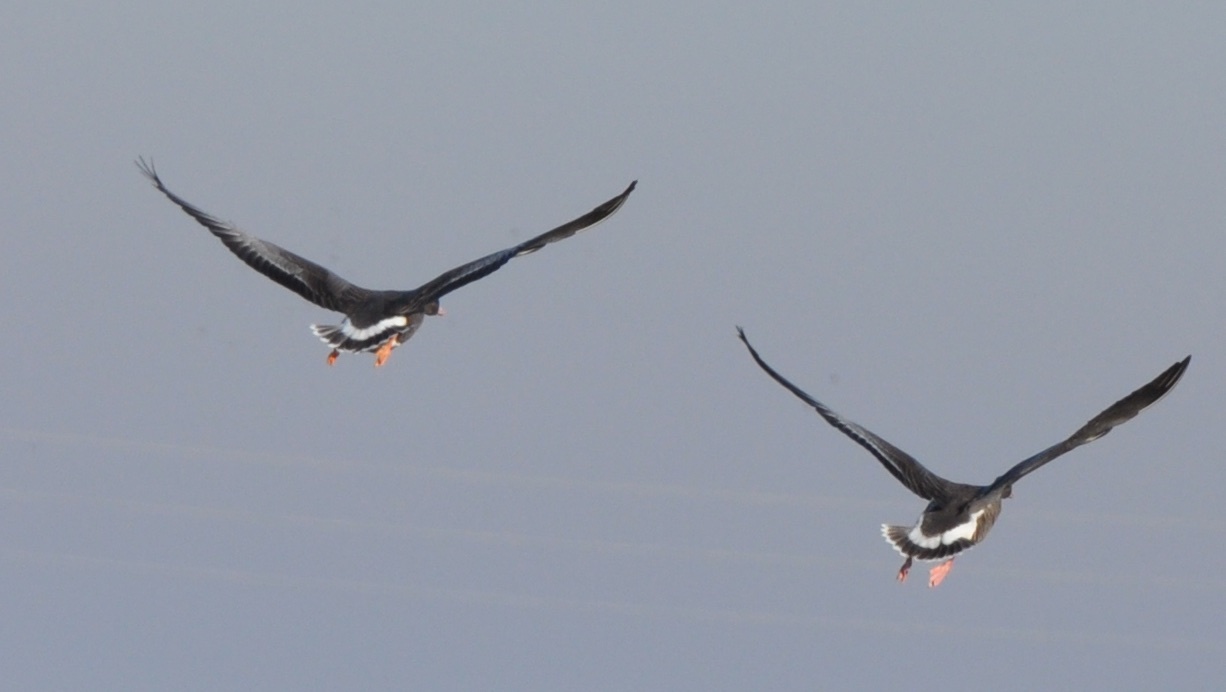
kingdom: Animalia
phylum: Chordata
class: Aves
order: Anseriformes
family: Anatidae
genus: Anser
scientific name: Anser albifrons
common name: Greater white-fronted goose
